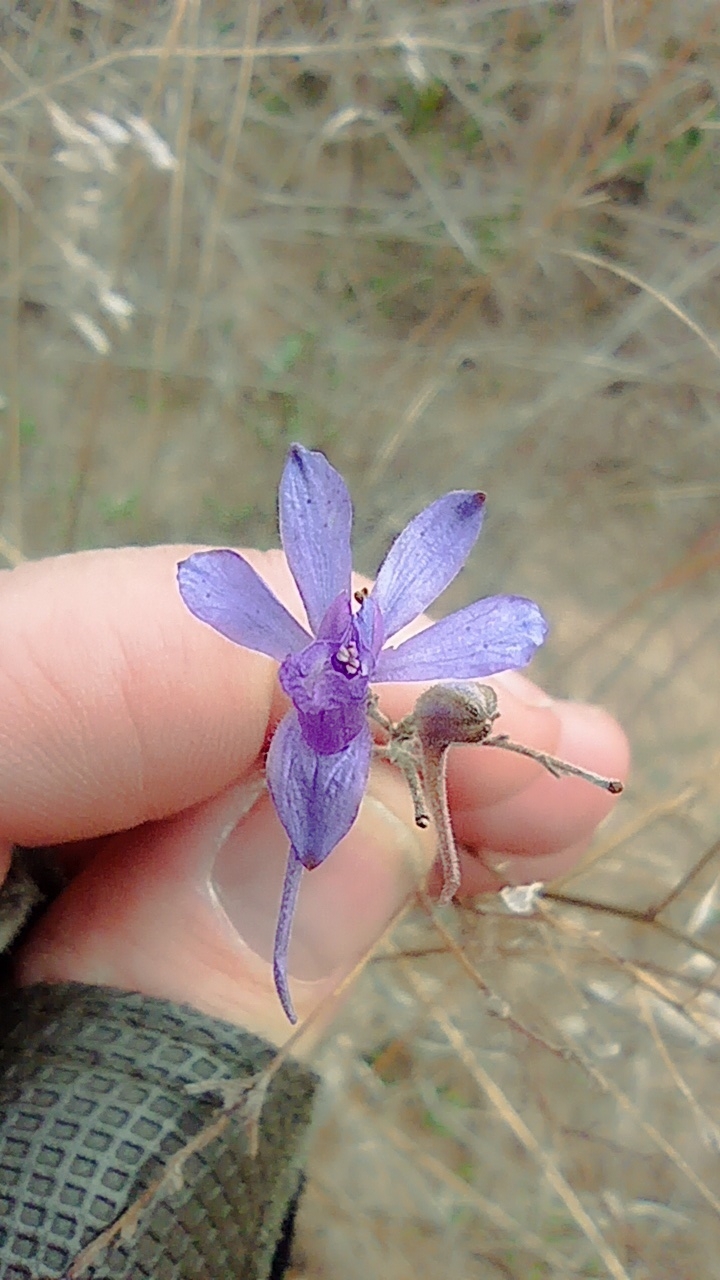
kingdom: Plantae
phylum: Tracheophyta
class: Magnoliopsida
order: Ranunculales
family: Ranunculaceae
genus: Delphinium
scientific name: Delphinium consolida
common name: Branching larkspur
